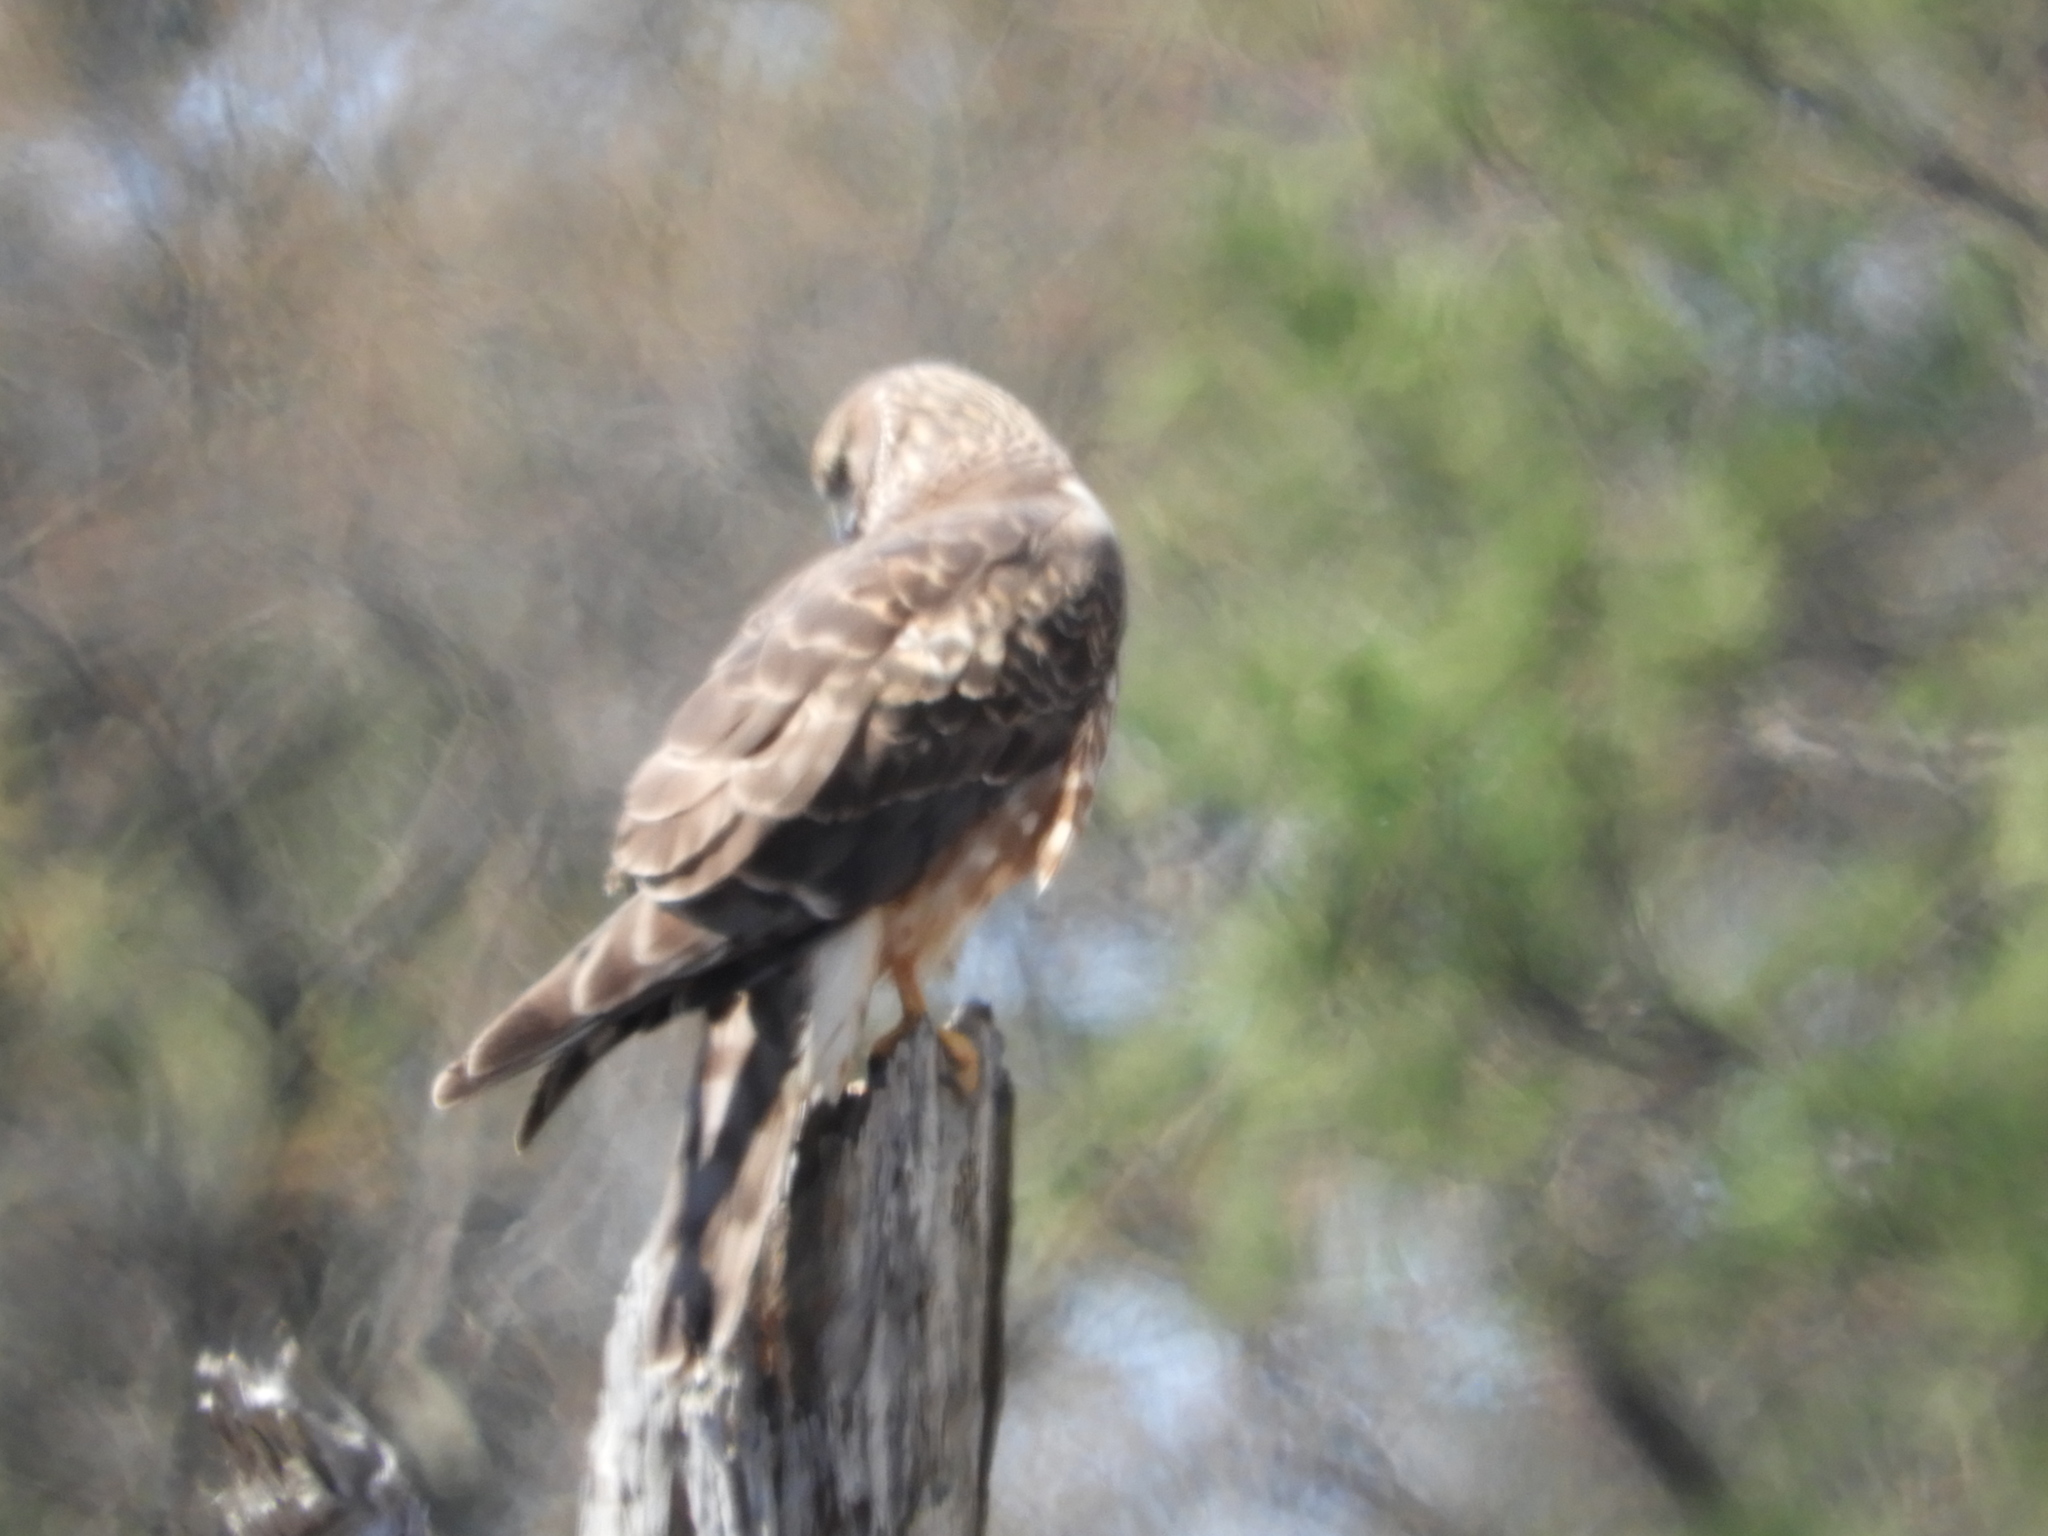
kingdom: Animalia
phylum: Chordata
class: Aves
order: Accipitriformes
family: Accipitridae
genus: Circus
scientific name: Circus cyaneus
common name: Hen harrier
